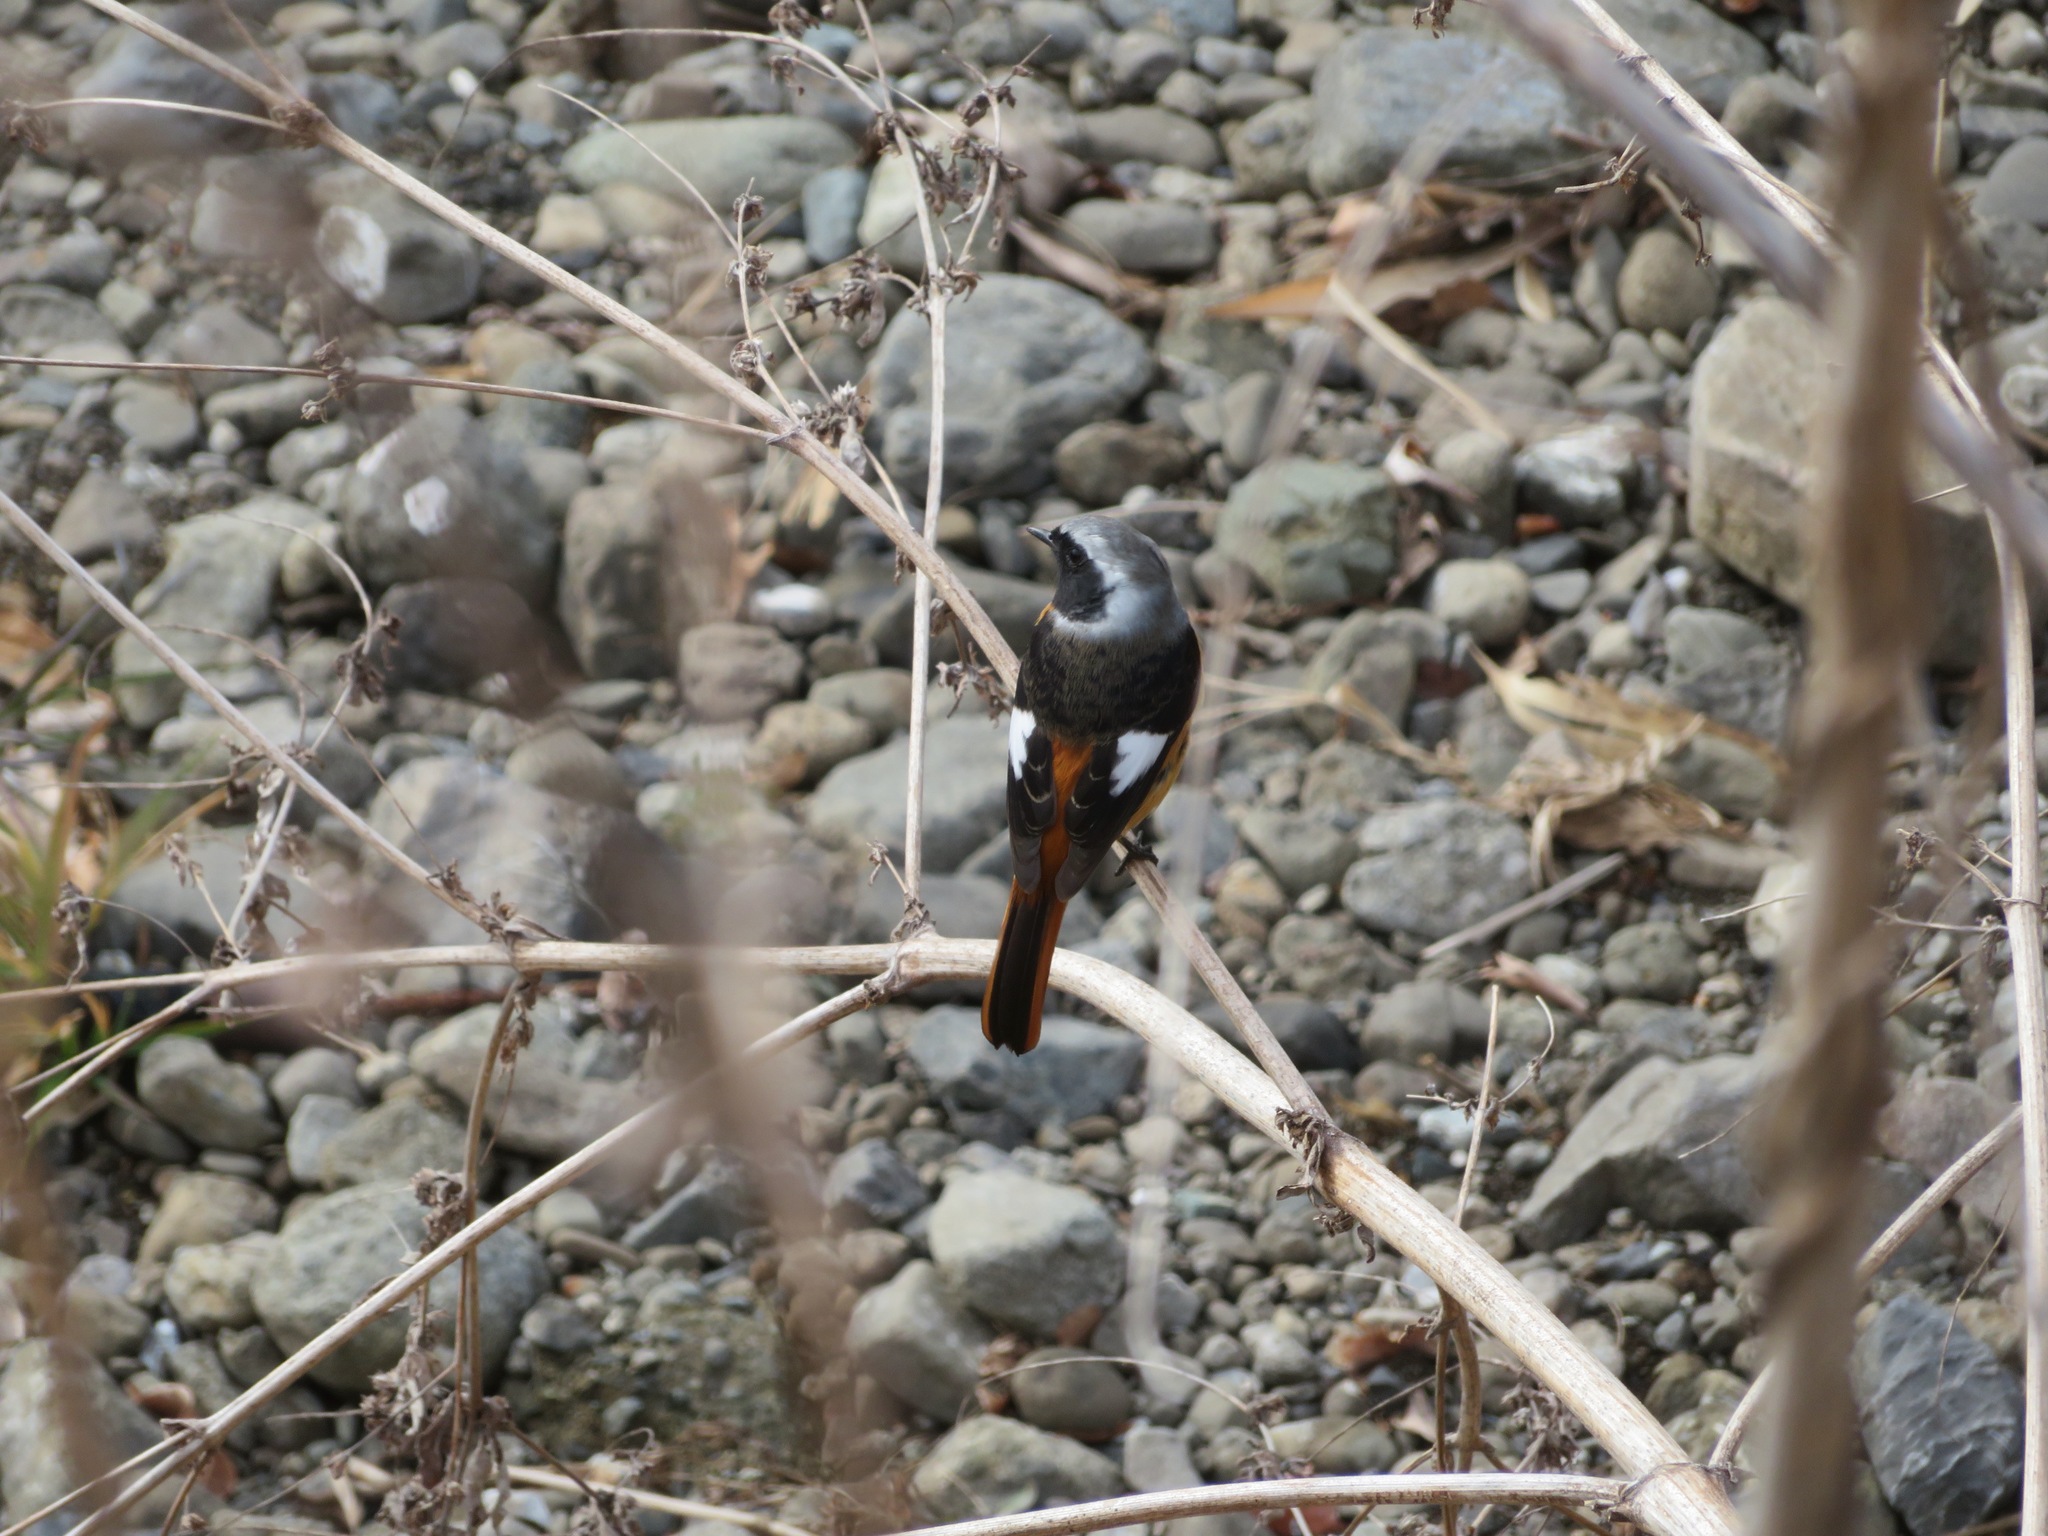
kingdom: Animalia
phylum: Chordata
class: Aves
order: Passeriformes
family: Muscicapidae
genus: Phoenicurus
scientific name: Phoenicurus auroreus
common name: Daurian redstart
